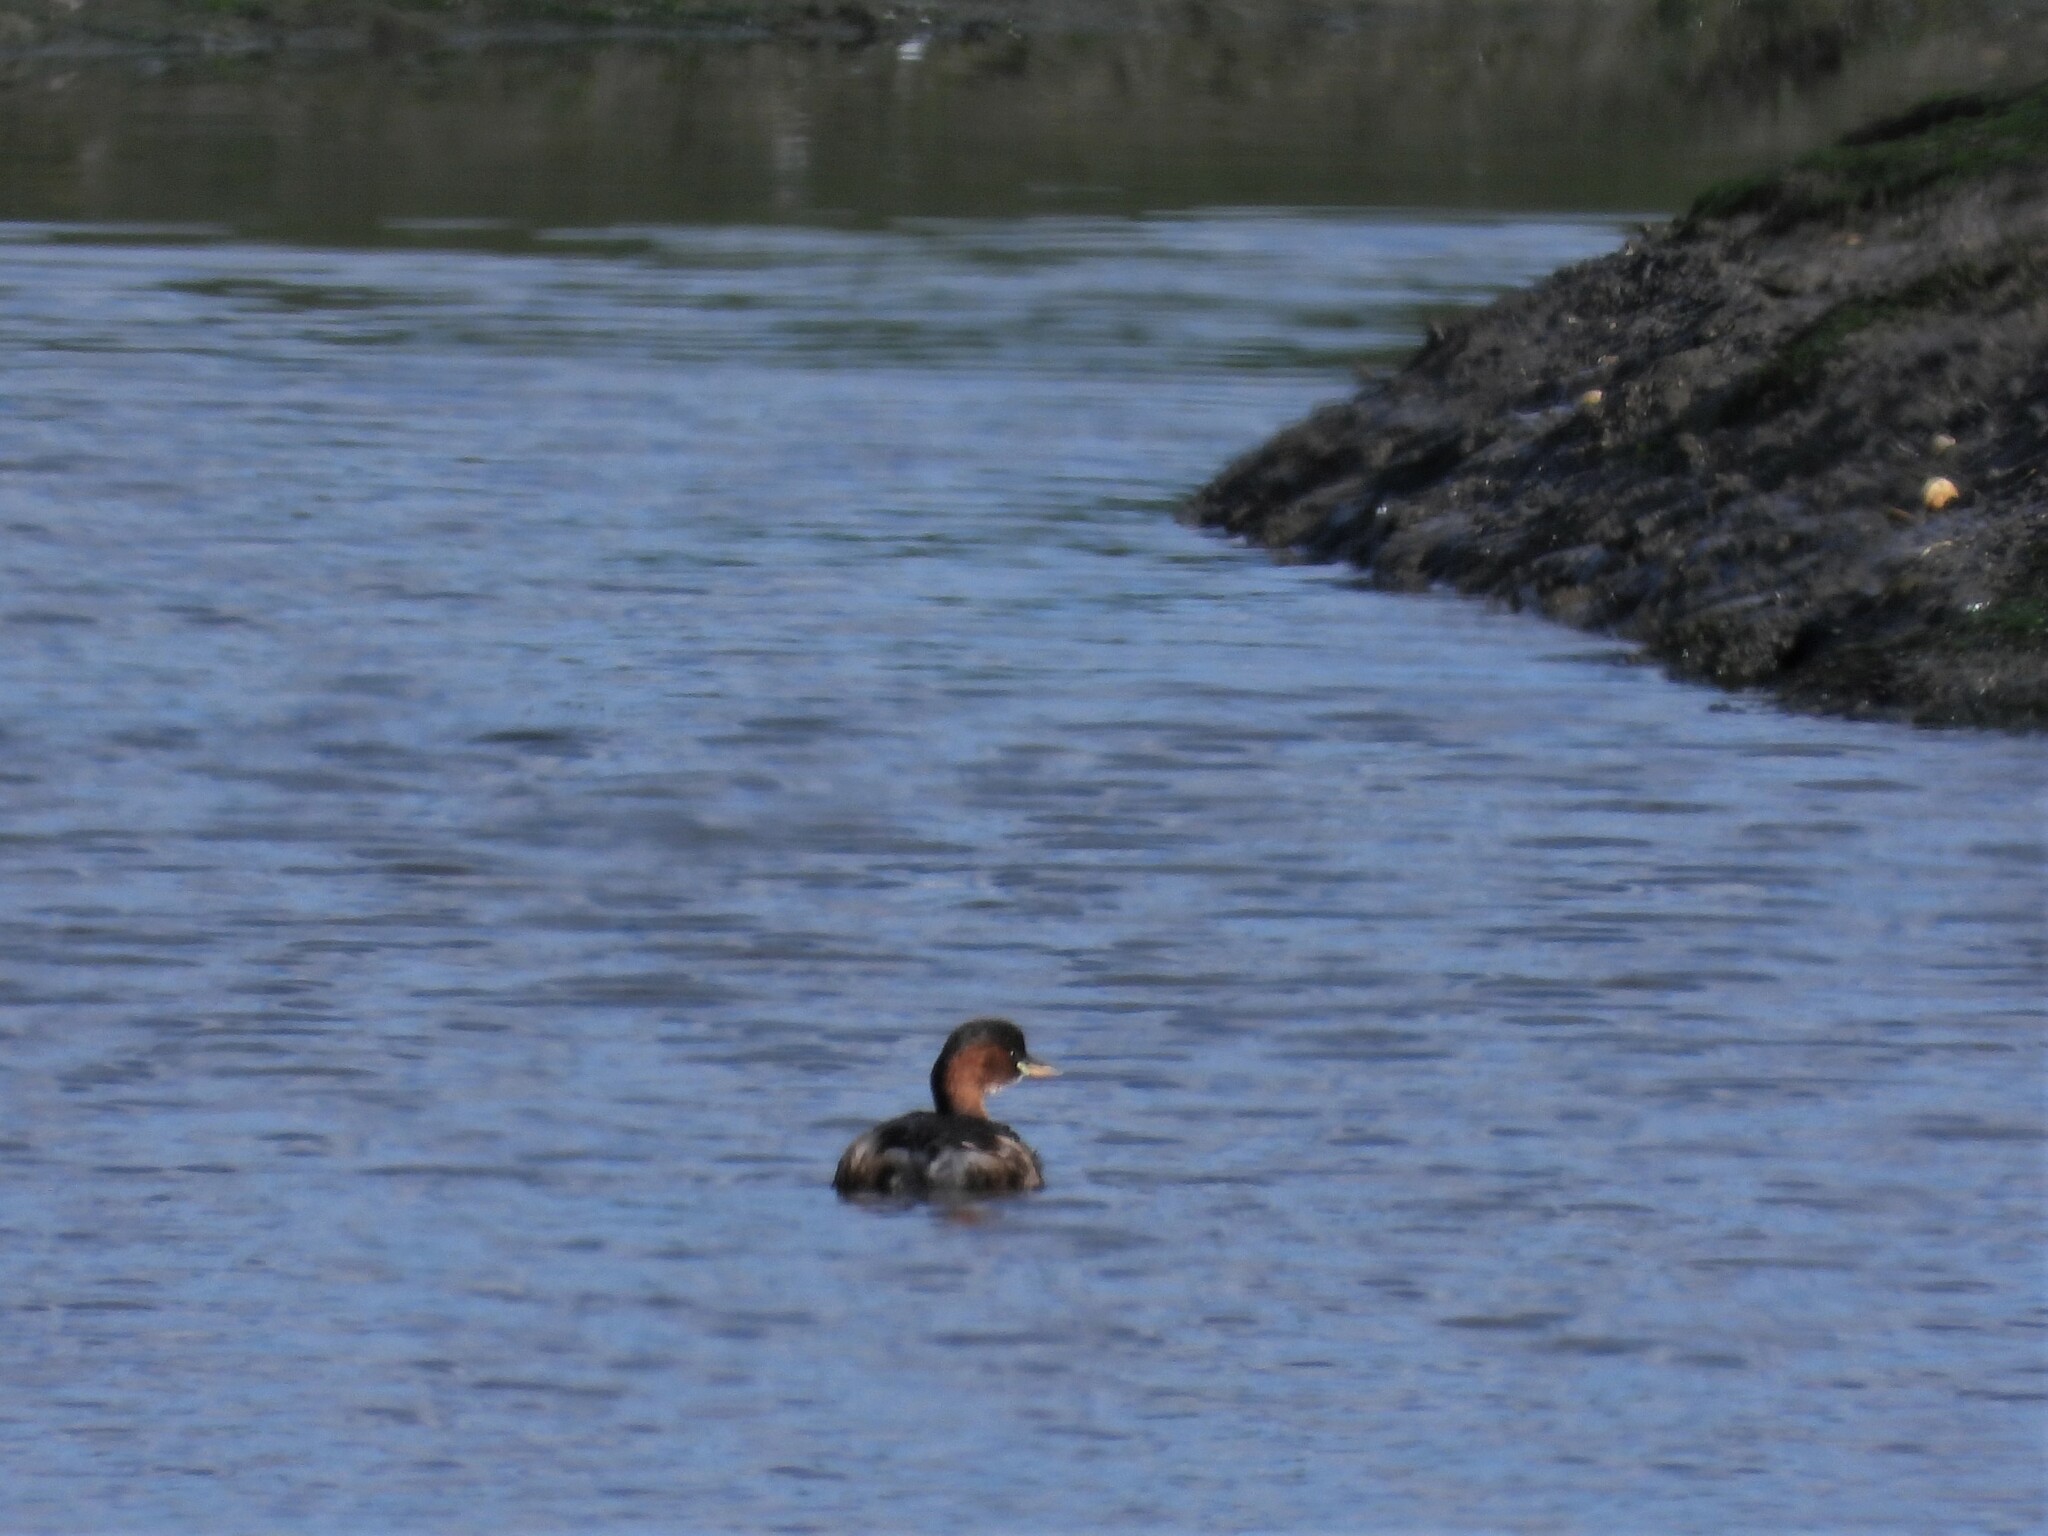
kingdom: Animalia
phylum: Chordata
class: Aves
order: Podicipediformes
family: Podicipedidae
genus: Tachybaptus
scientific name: Tachybaptus ruficollis
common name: Little grebe
